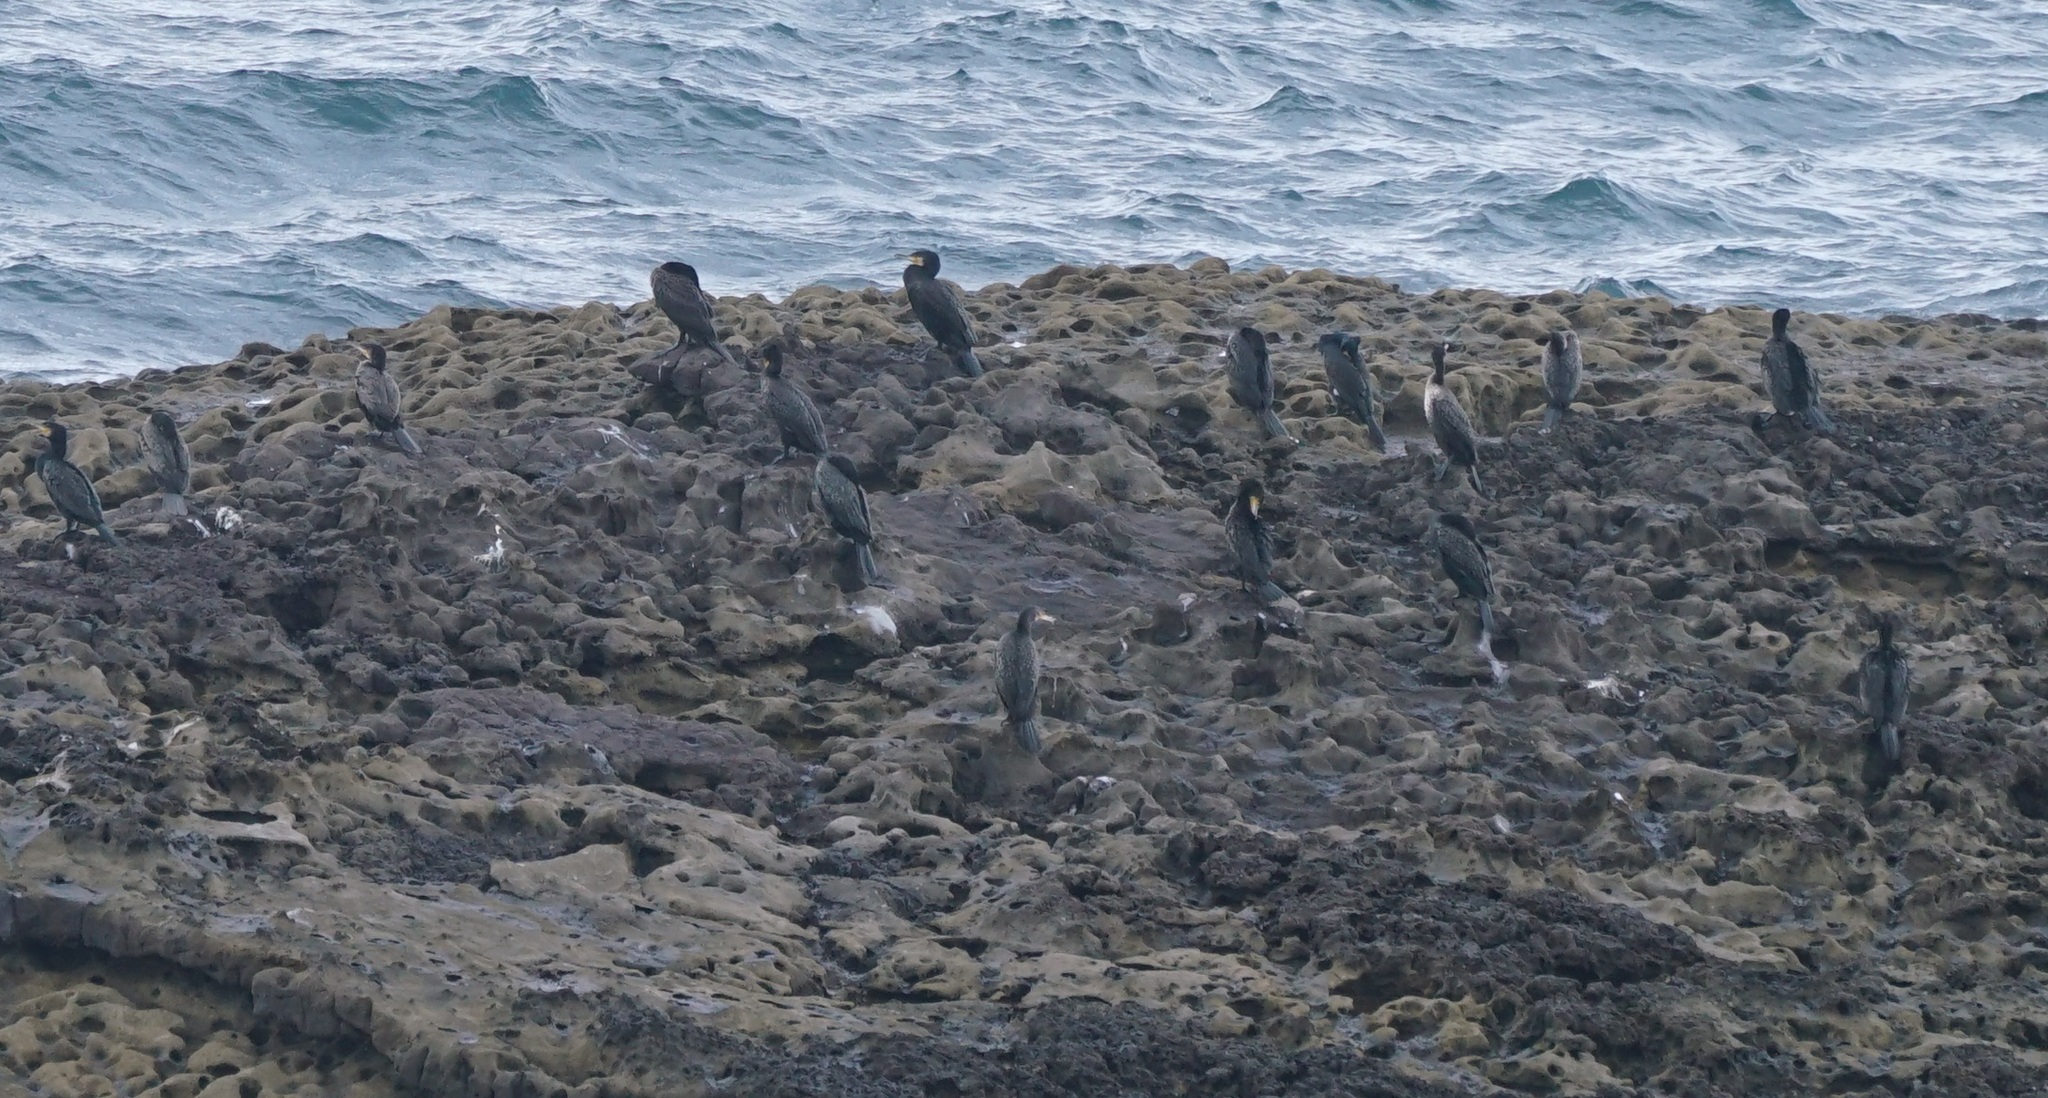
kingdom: Animalia
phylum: Chordata
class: Aves
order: Suliformes
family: Phalacrocoracidae
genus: Phalacrocorax
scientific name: Phalacrocorax carbo
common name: Great cormorant
